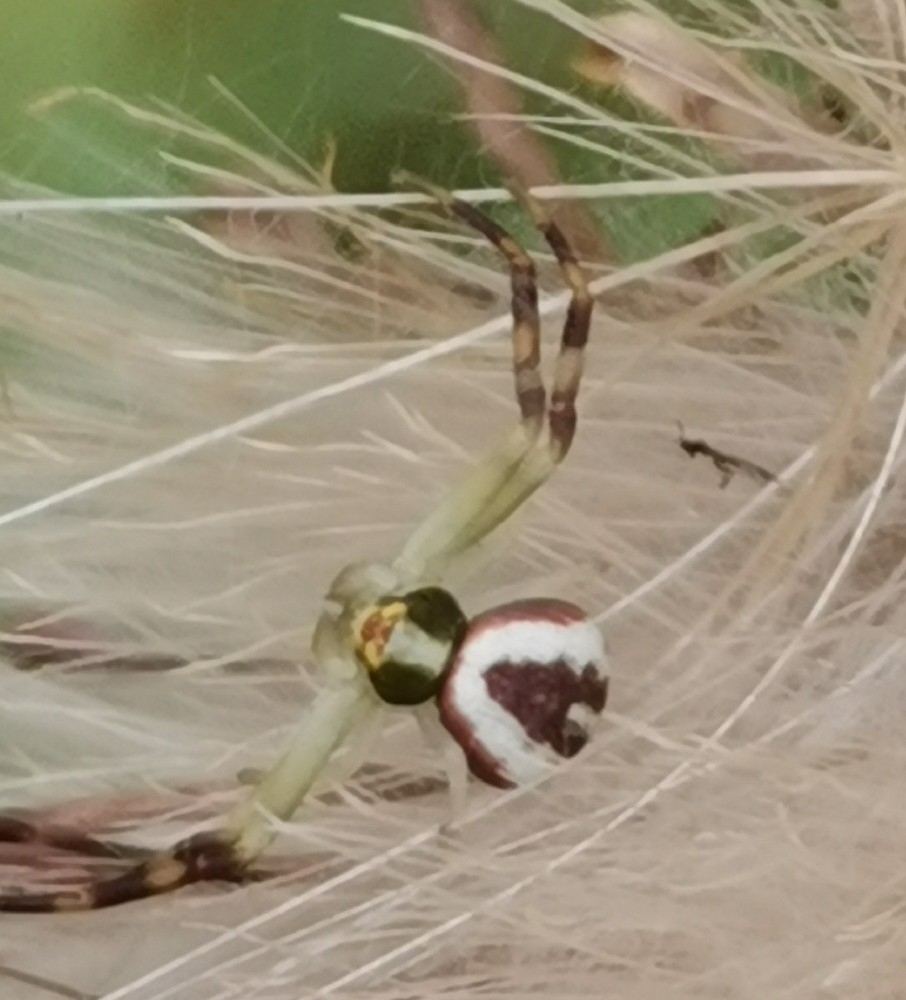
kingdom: Animalia
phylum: Arthropoda
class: Arachnida
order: Araneae
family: Thomisidae
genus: Misumena
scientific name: Misumena vatia
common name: Goldenrod crab spider
